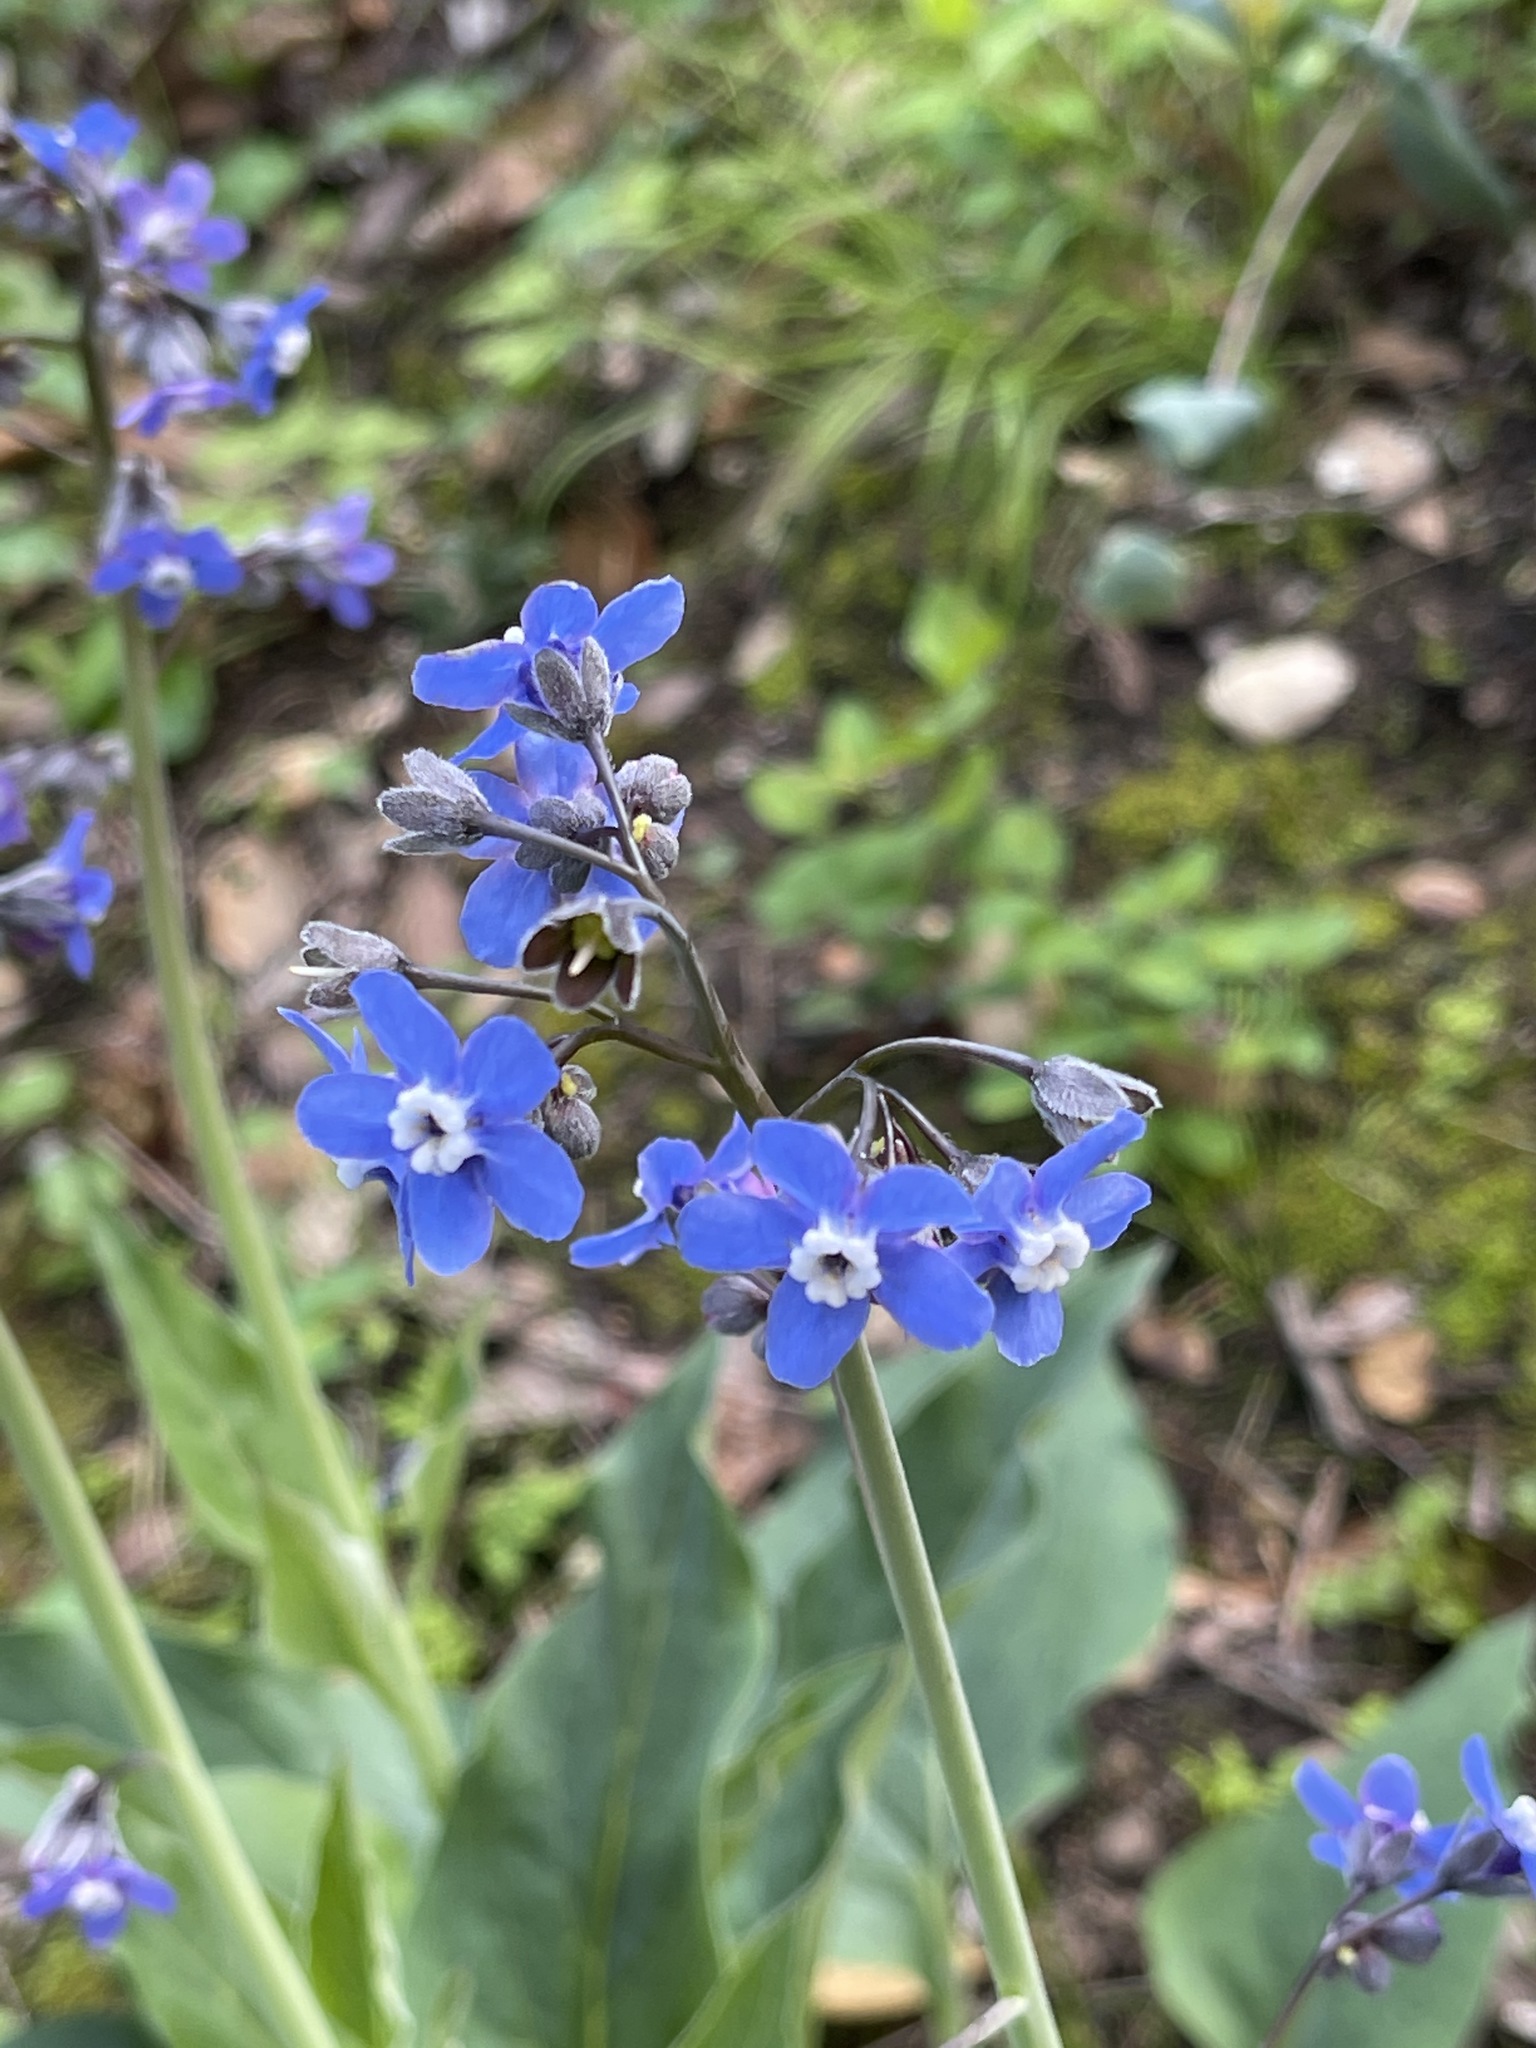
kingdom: Plantae
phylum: Tracheophyta
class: Magnoliopsida
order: Boraginales
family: Boraginaceae
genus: Adelinia
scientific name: Adelinia grande
